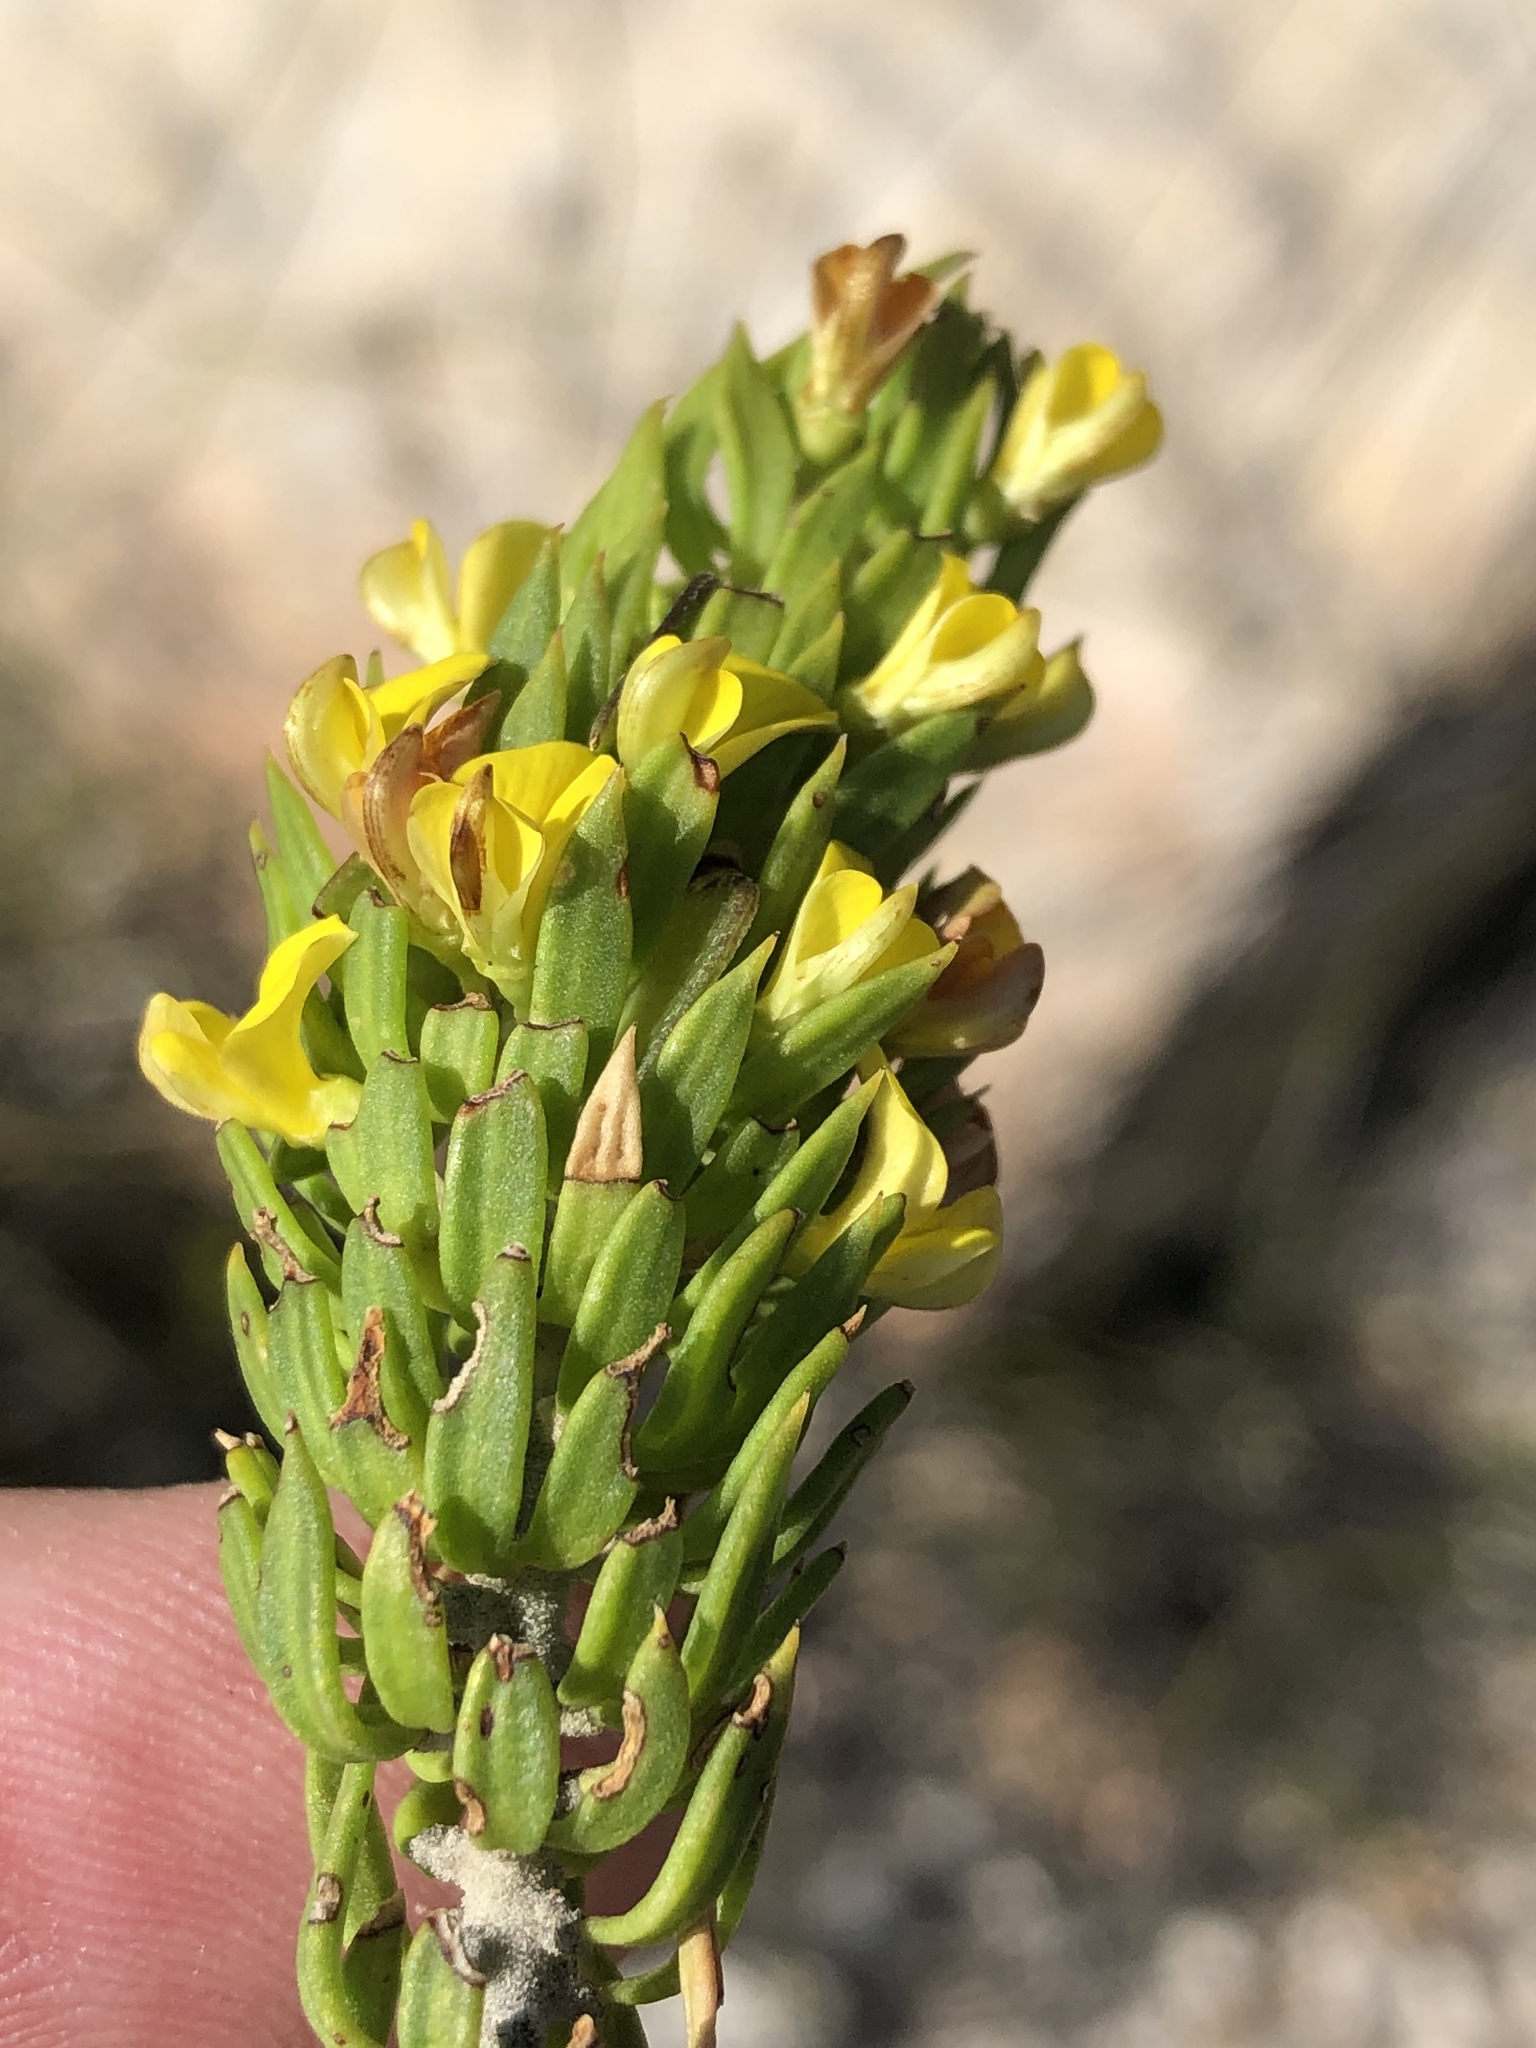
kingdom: Plantae
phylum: Tracheophyta
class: Magnoliopsida
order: Fabales
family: Fabaceae
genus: Aspalathus
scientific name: Aspalathus mundiana
